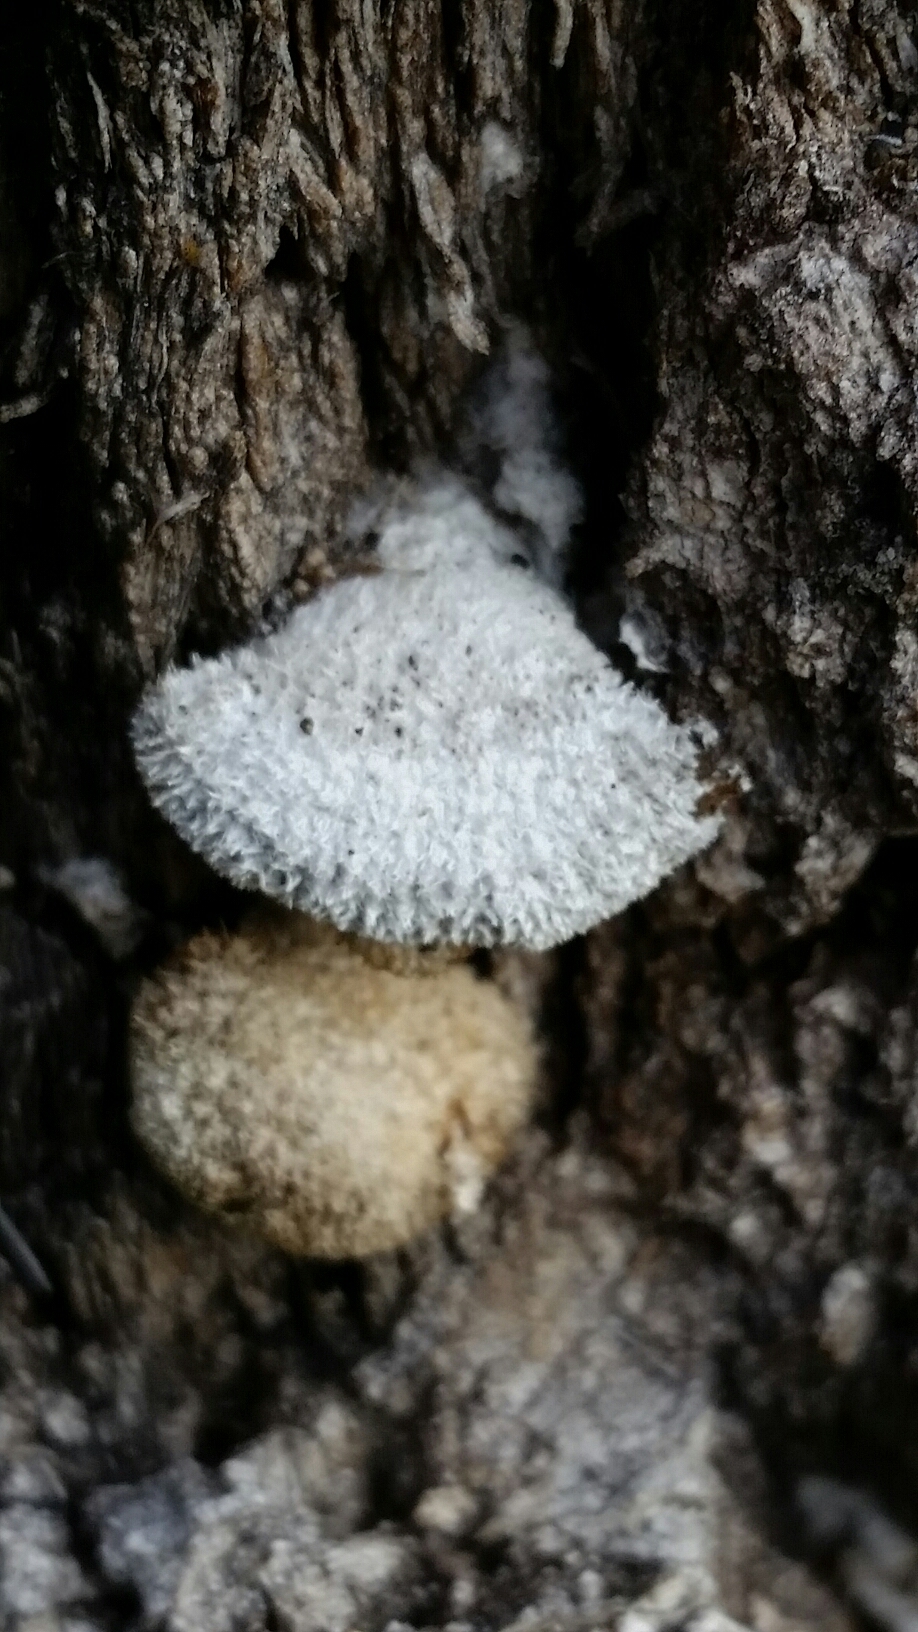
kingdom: Fungi
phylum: Basidiomycota
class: Agaricomycetes
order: Agaricales
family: Schizophyllaceae
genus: Schizophyllum
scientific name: Schizophyllum commune
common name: Common porecrust
